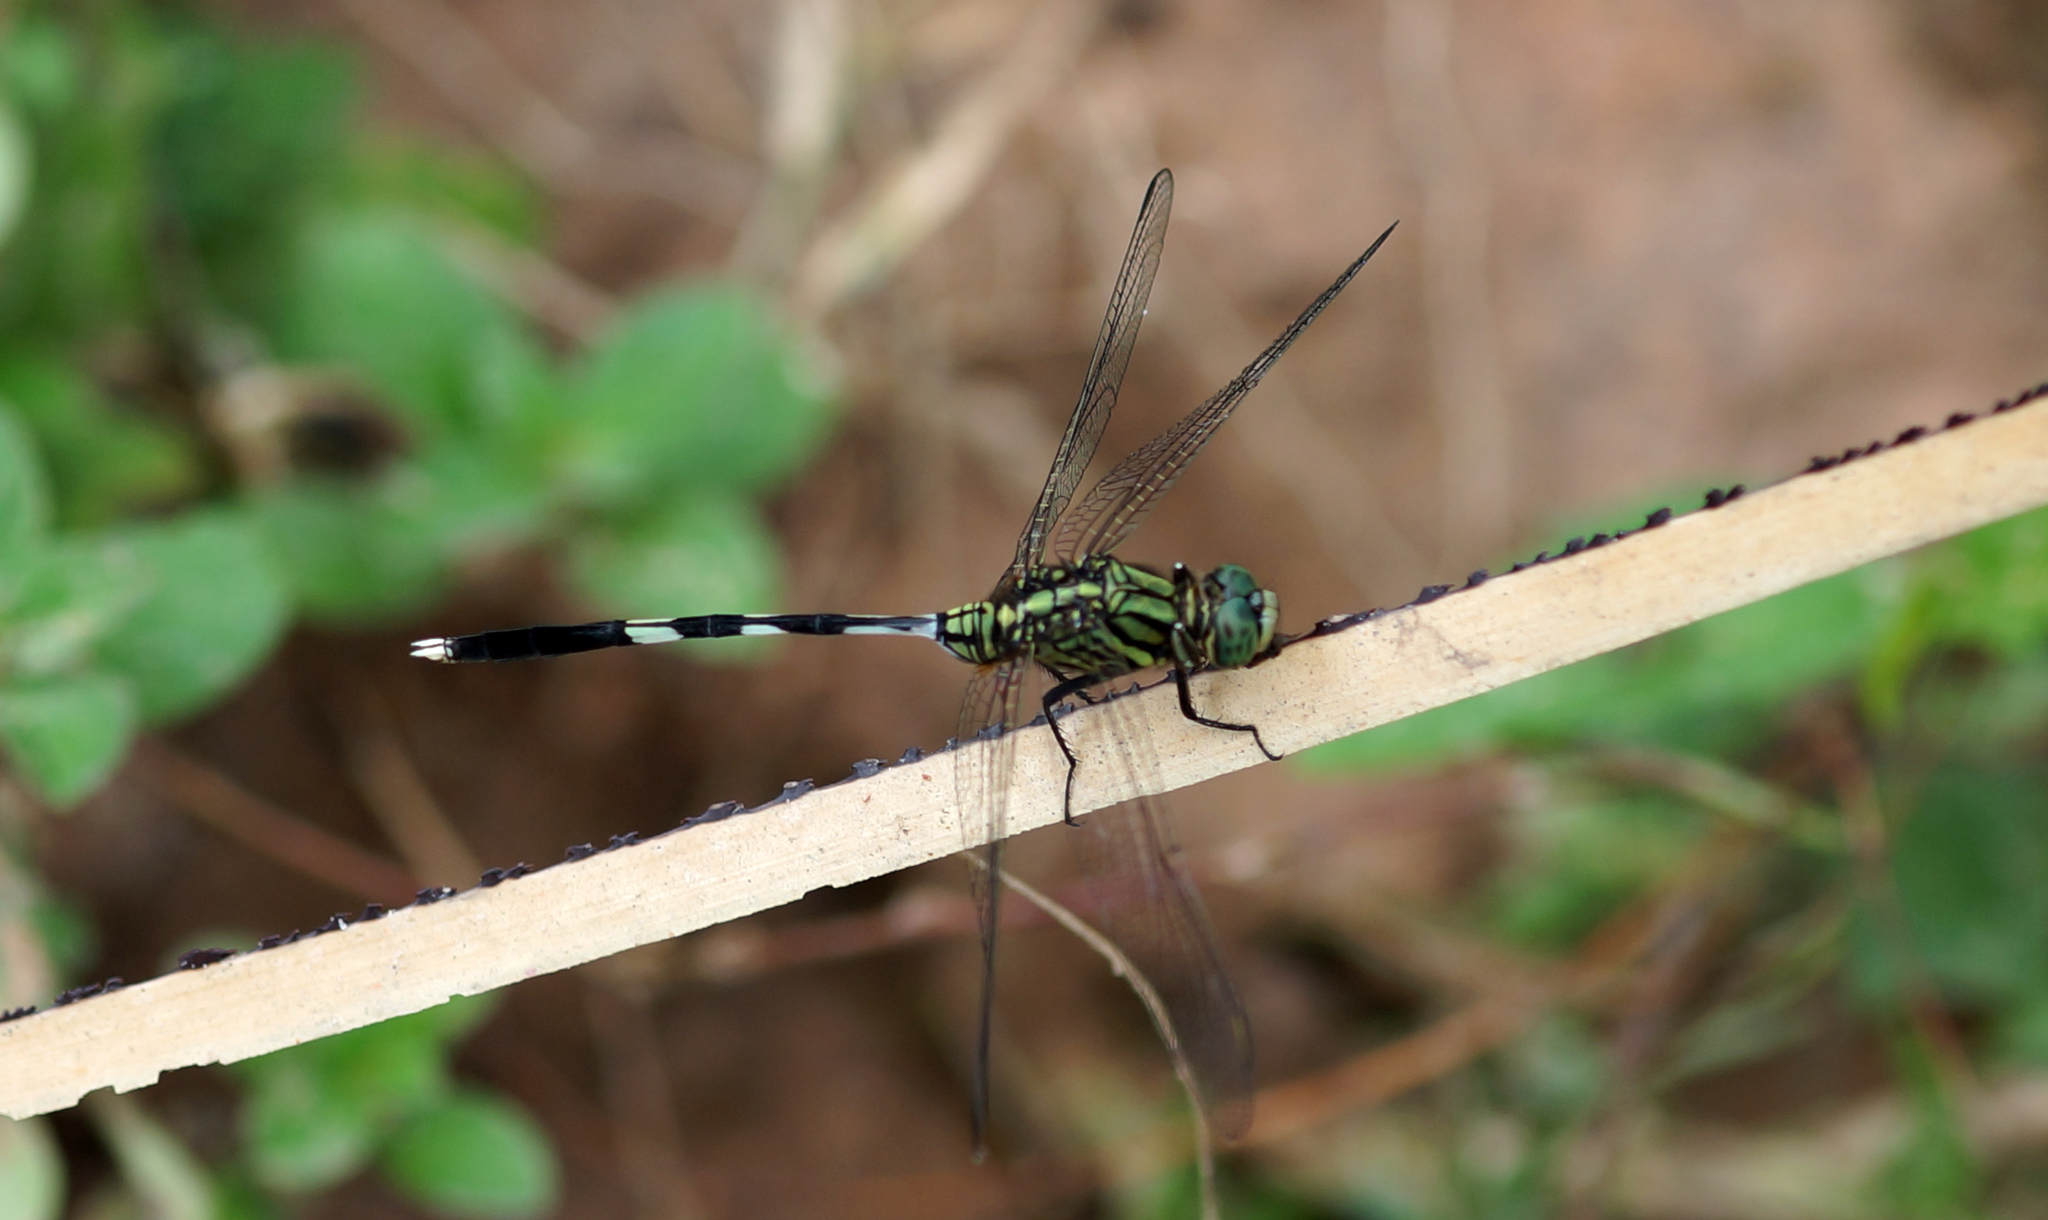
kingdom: Animalia
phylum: Arthropoda
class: Insecta
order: Odonata
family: Libellulidae
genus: Orthetrum
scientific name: Orthetrum sabina
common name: Slender skimmer
